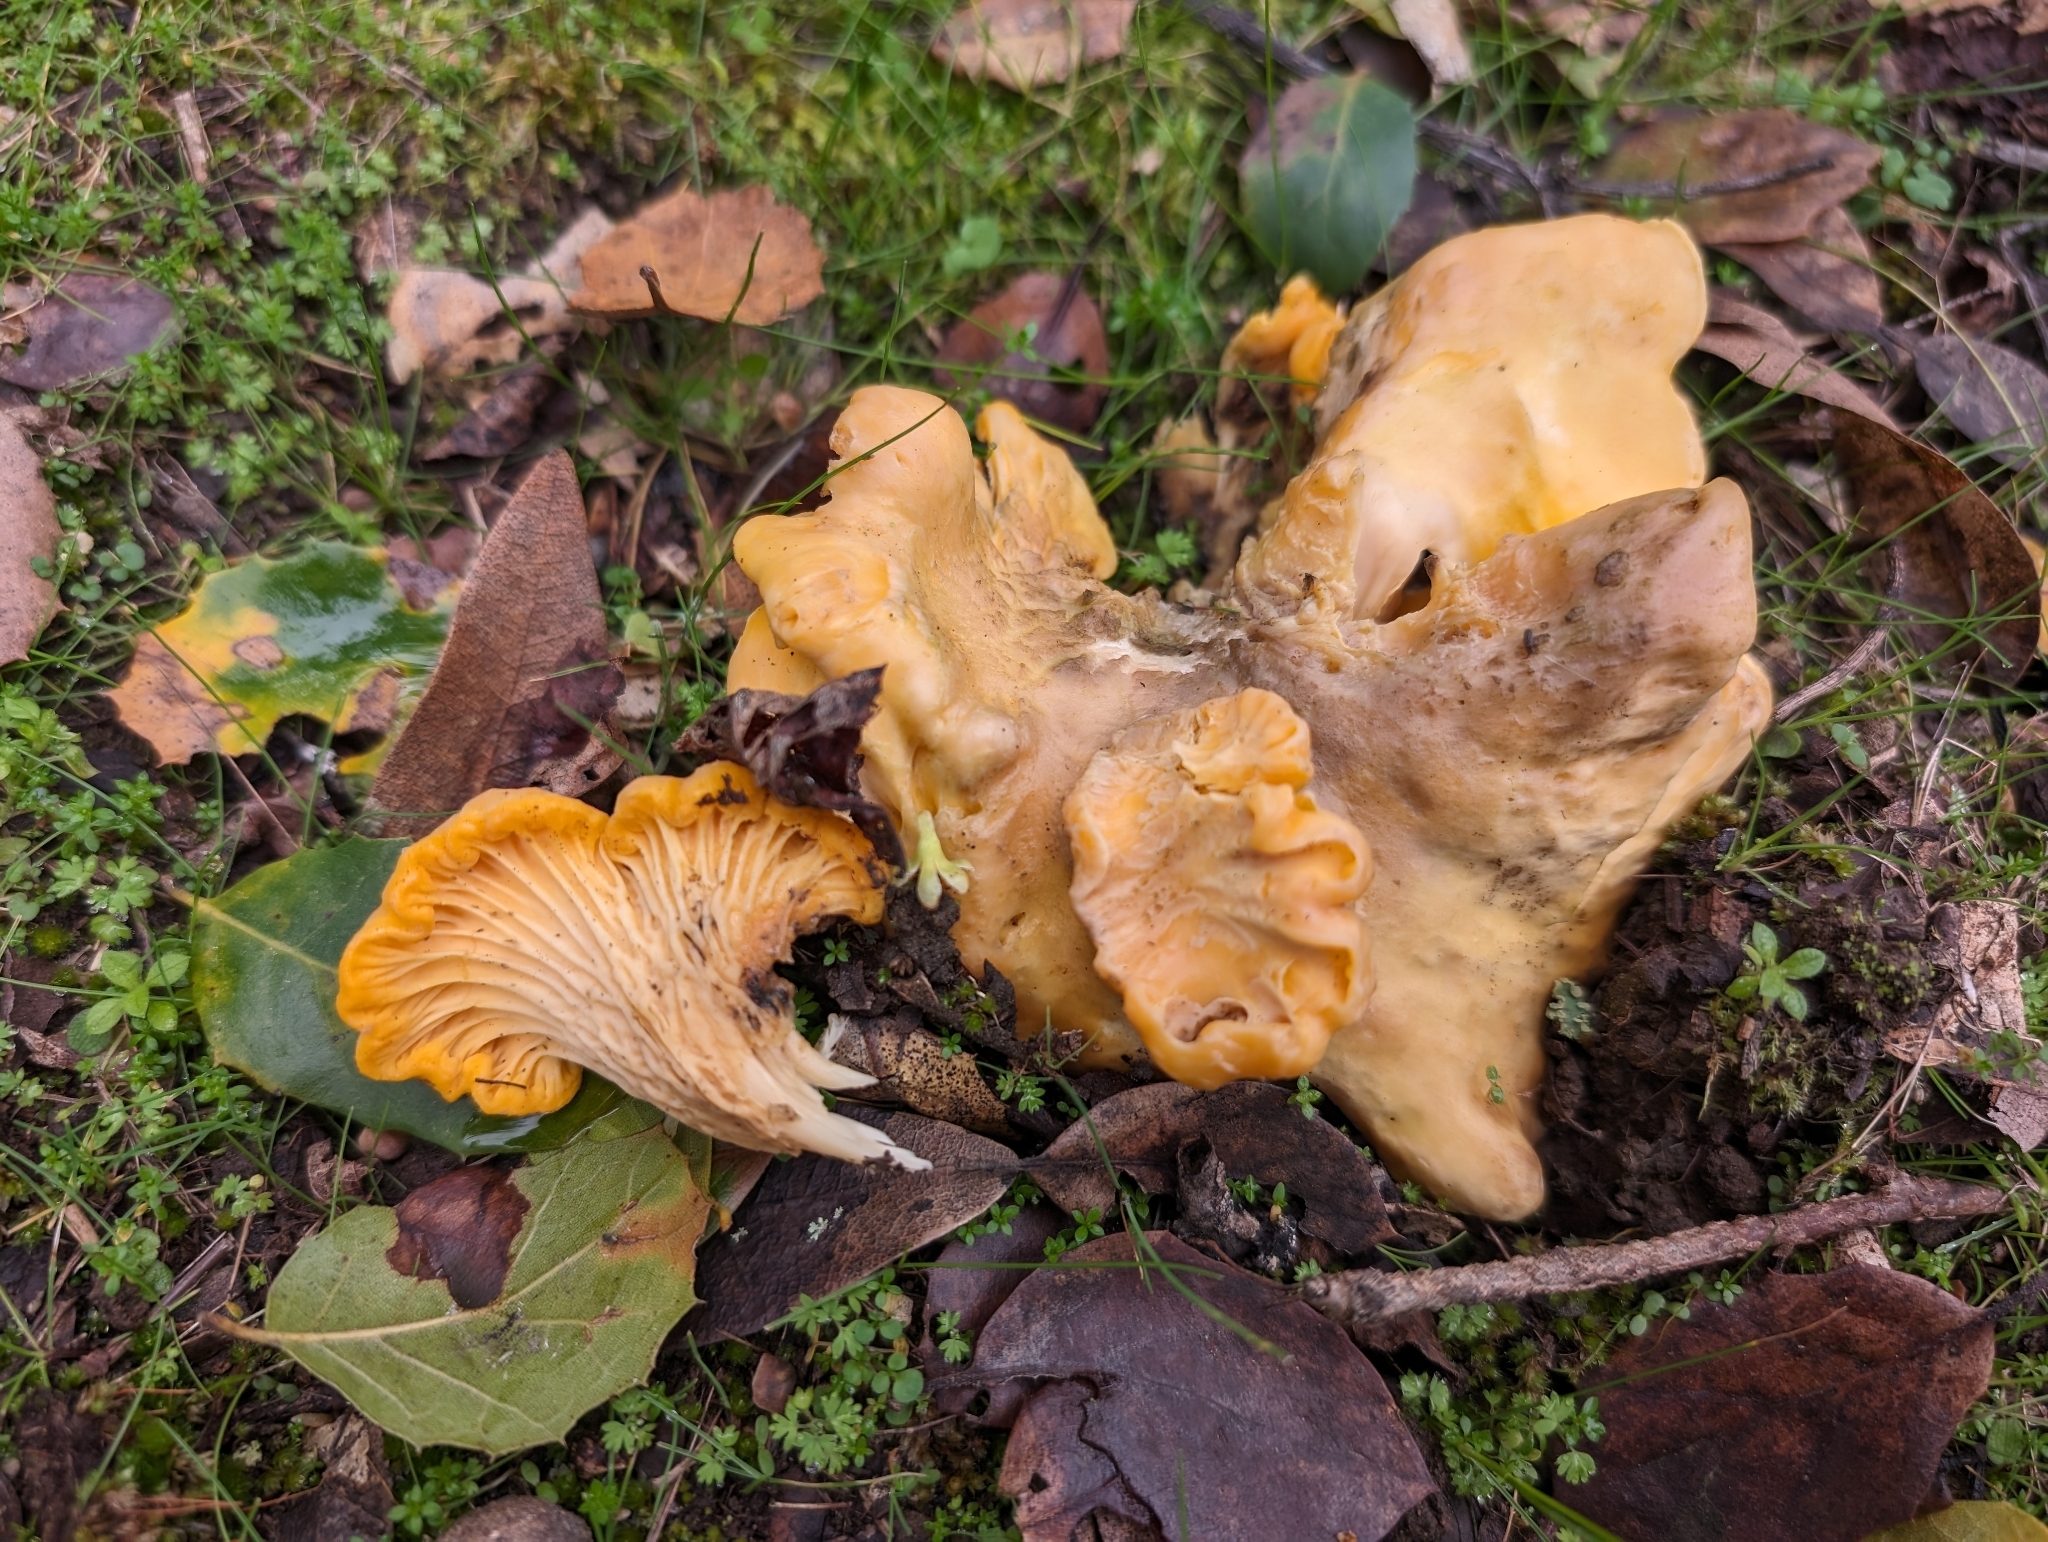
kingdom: Fungi
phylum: Basidiomycota
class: Agaricomycetes
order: Cantharellales
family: Hydnaceae
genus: Cantharellus
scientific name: Cantharellus californicus
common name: California golden chanterelle
